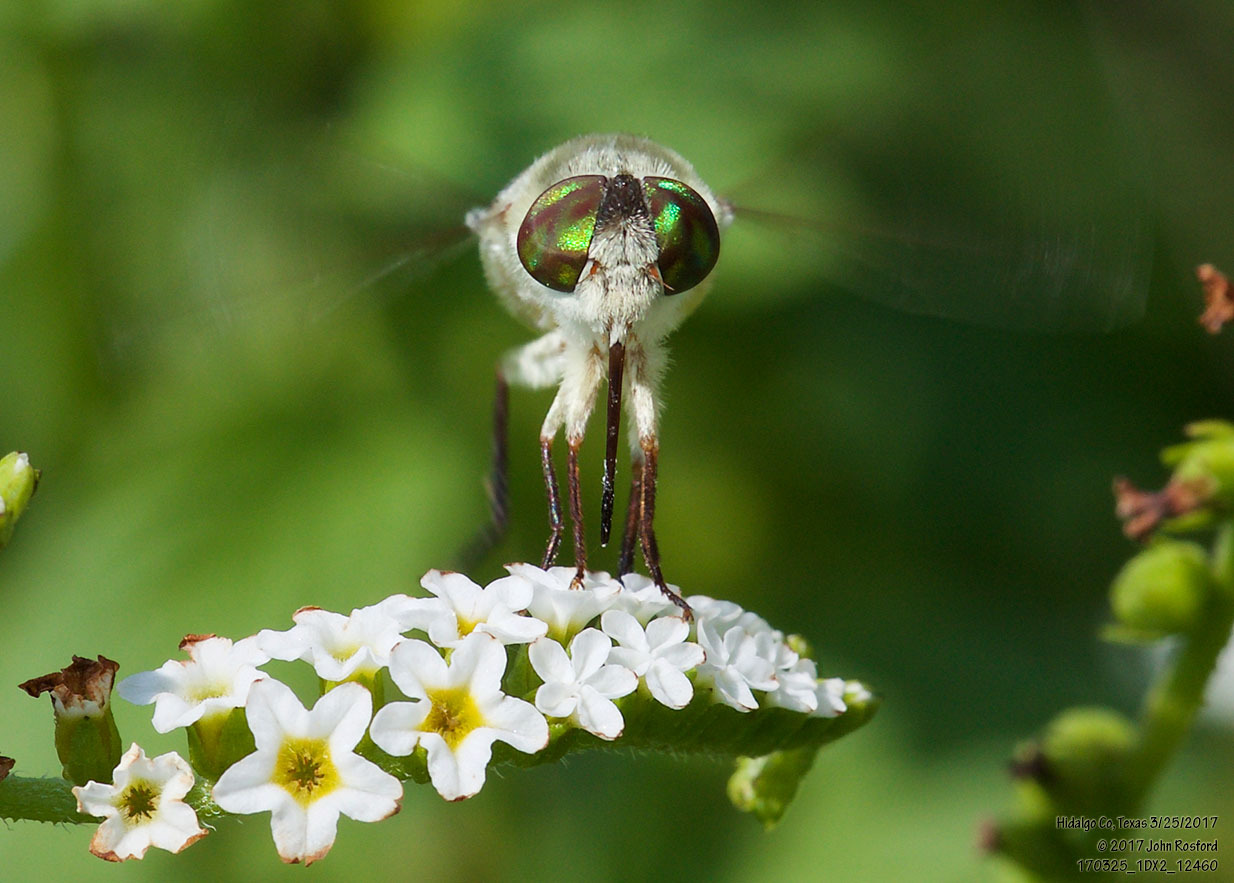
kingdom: Animalia
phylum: Arthropoda
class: Insecta
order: Diptera
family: Nemestrinidae
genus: Neorhynchocephalus
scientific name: Neorhynchocephalus volaticus
